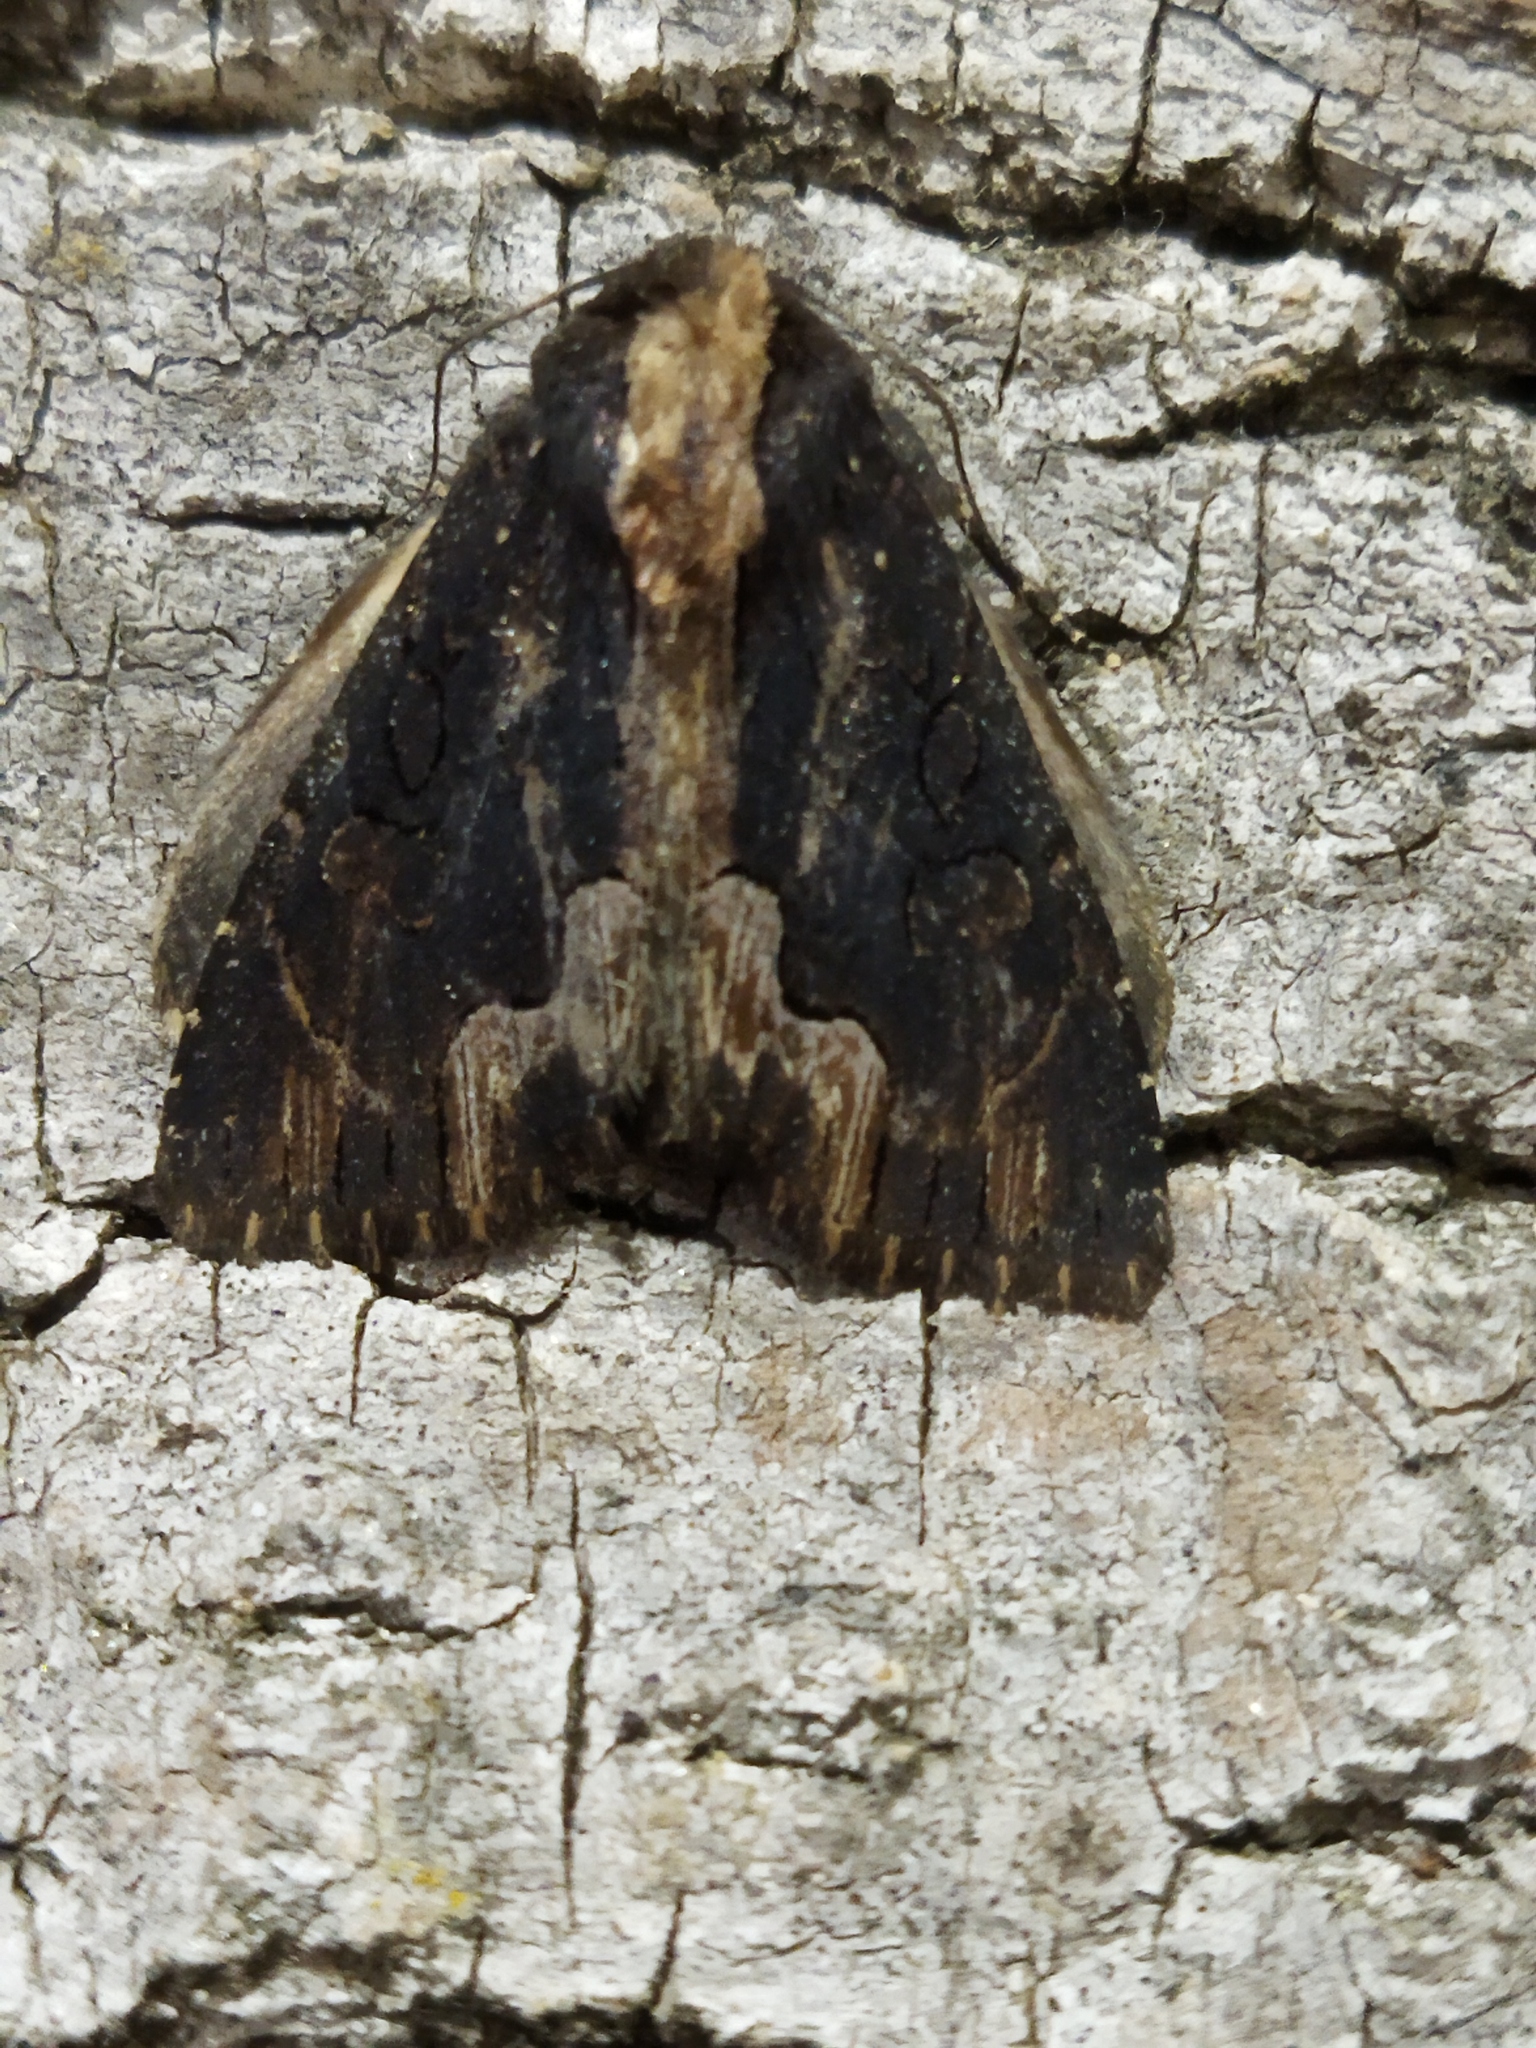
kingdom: Animalia
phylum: Arthropoda
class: Insecta
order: Lepidoptera
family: Noctuidae
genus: Dypterygia
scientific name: Dypterygia scabriuscula
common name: Bird's wing
